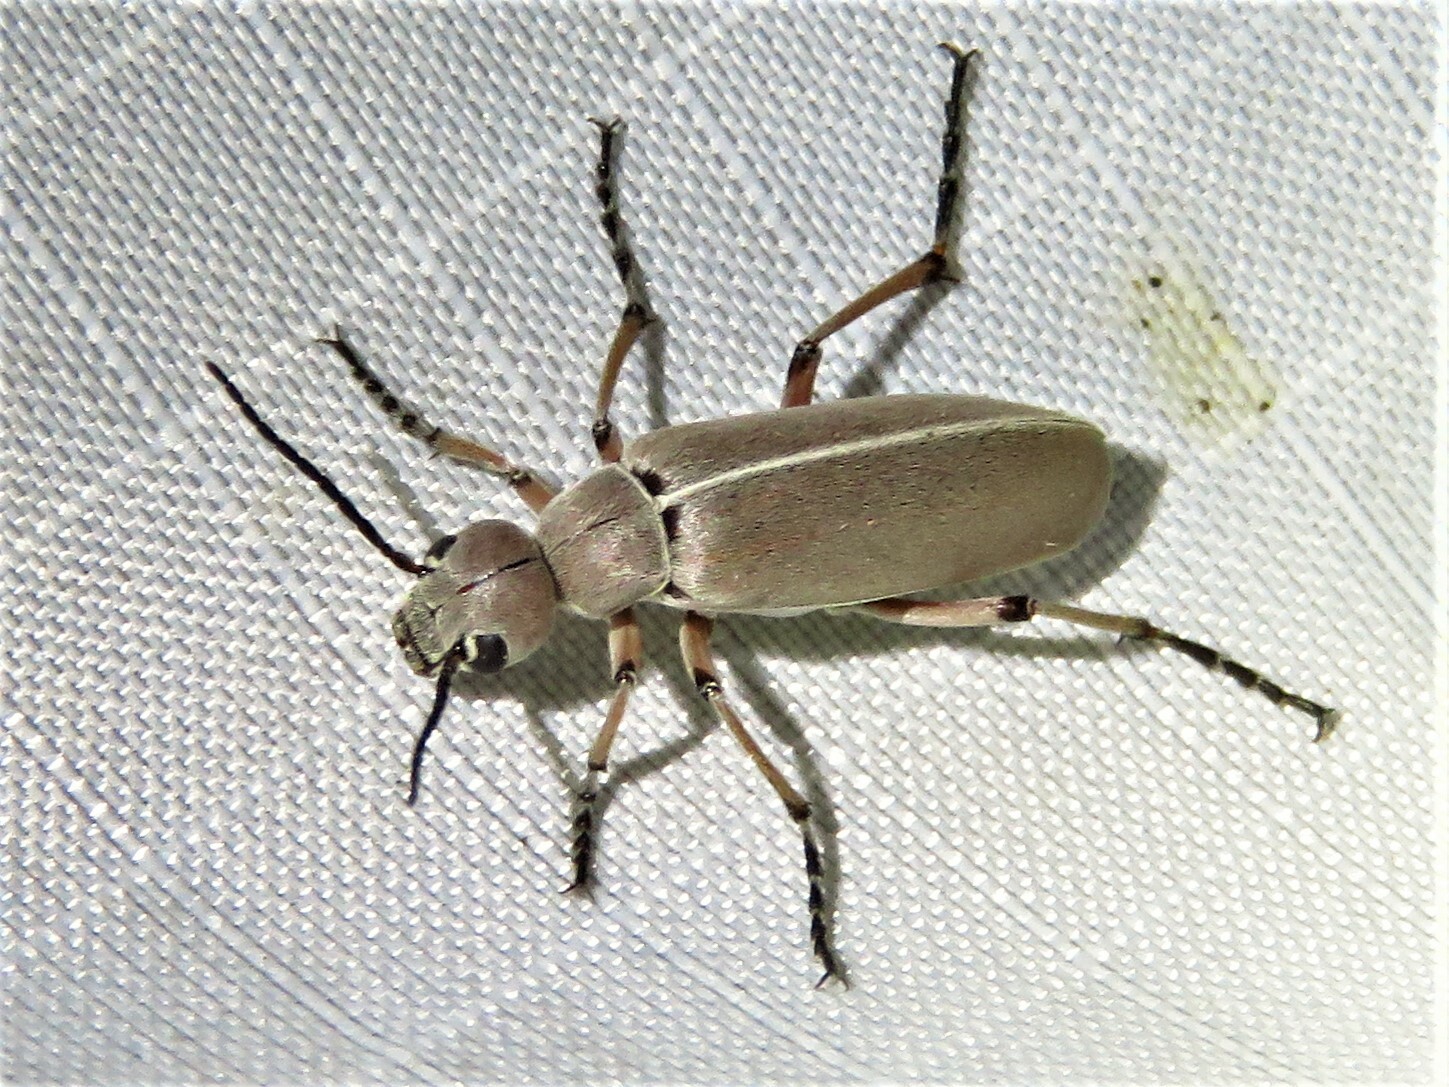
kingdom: Animalia
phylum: Arthropoda
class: Insecta
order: Coleoptera
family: Meloidae
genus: Epicauta
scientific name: Epicauta nigritarsis
